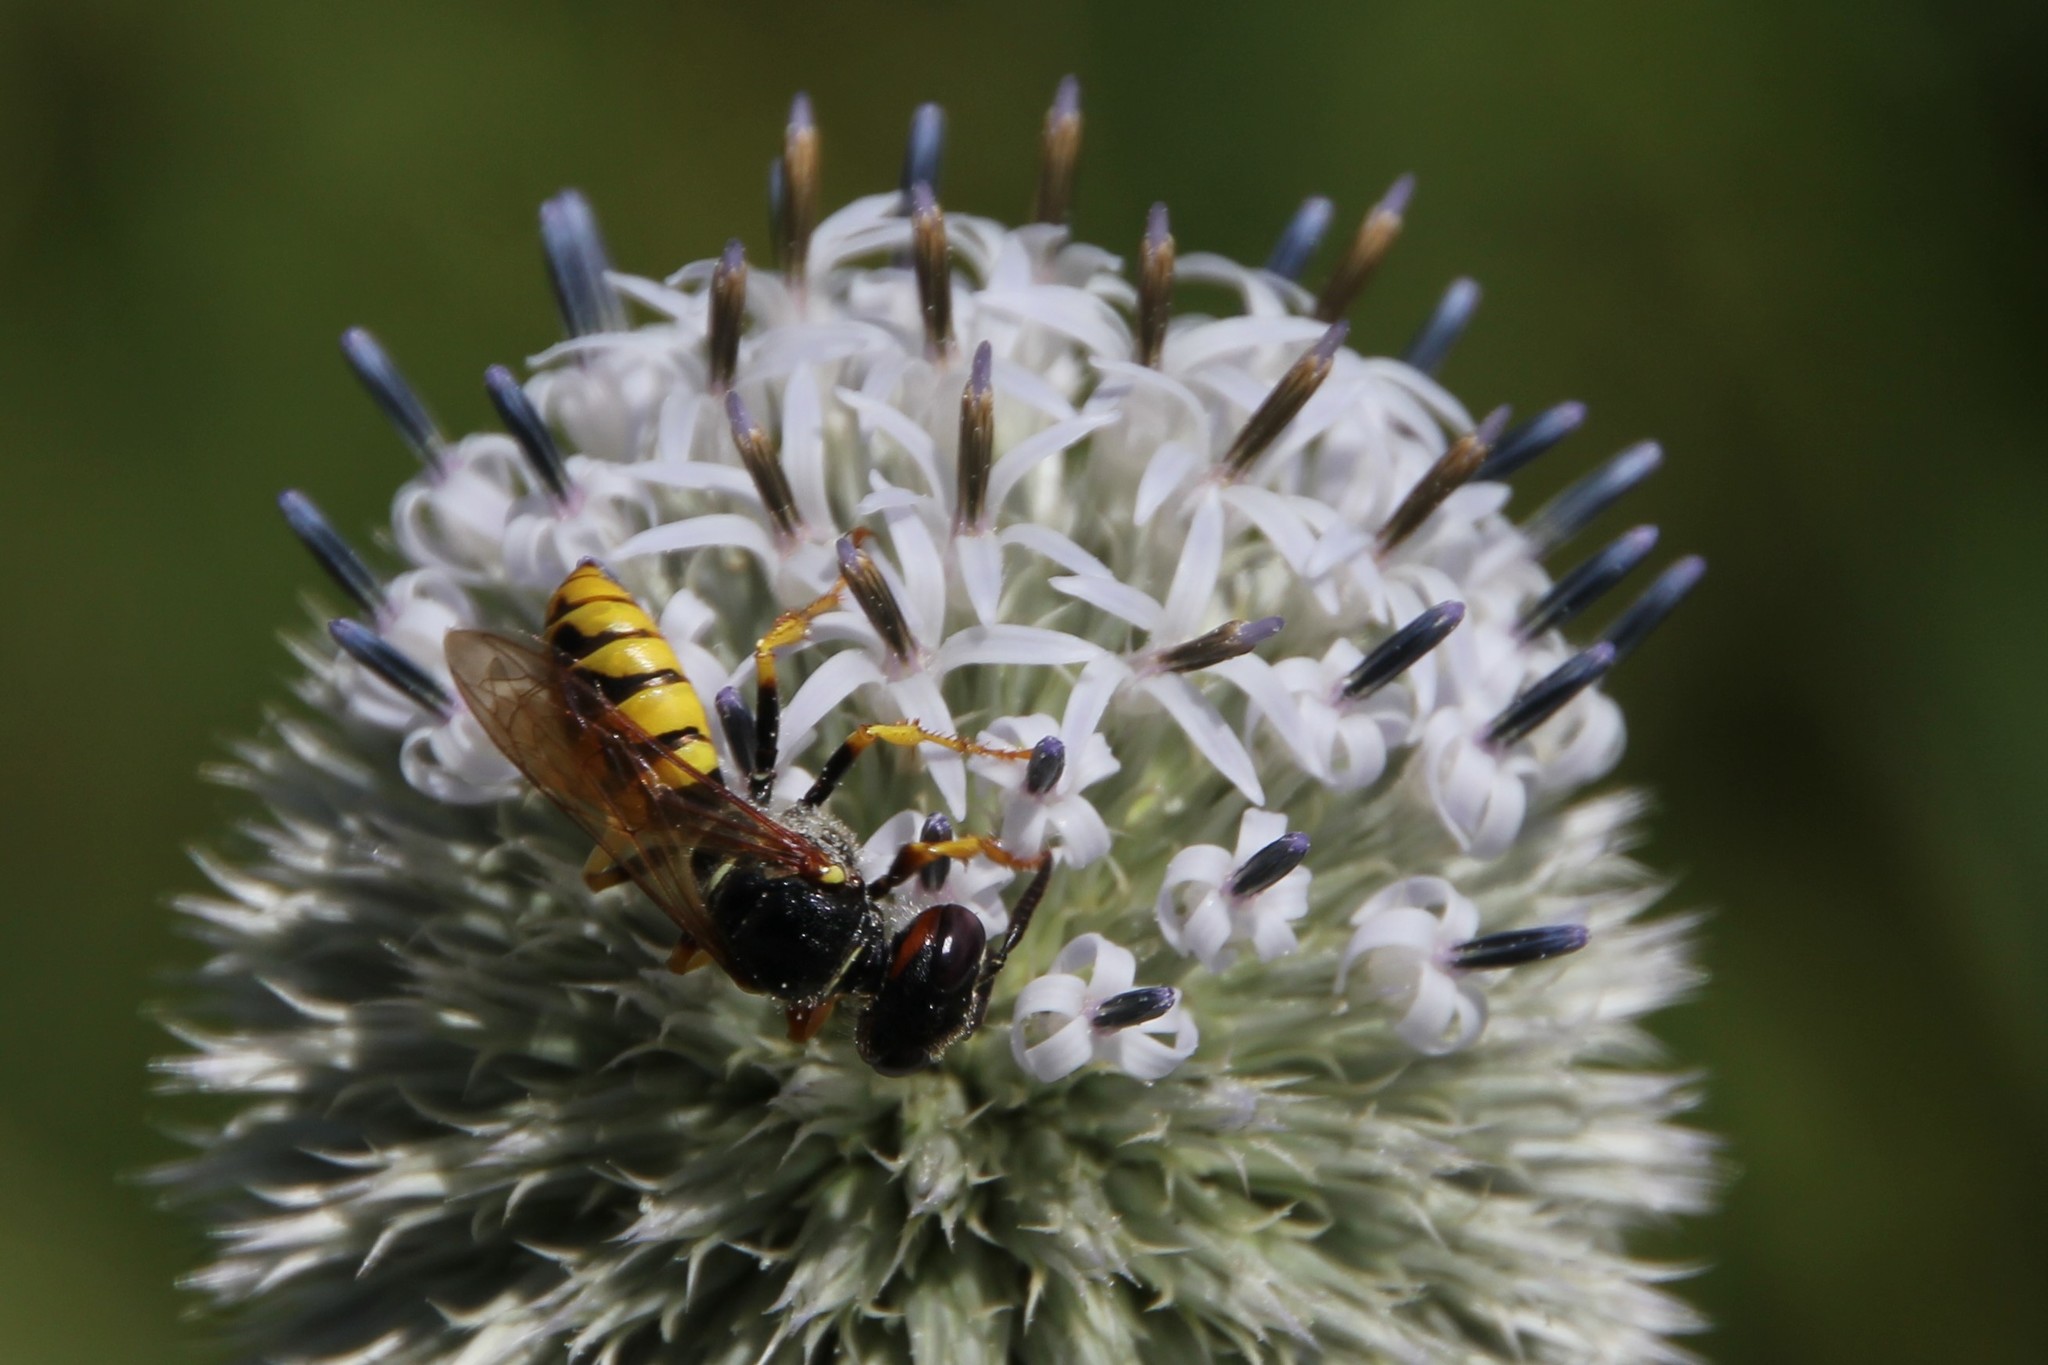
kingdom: Animalia
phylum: Arthropoda
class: Insecta
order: Hymenoptera
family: Crabronidae
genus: Philanthus
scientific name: Philanthus triangulum
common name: Bee wolf
